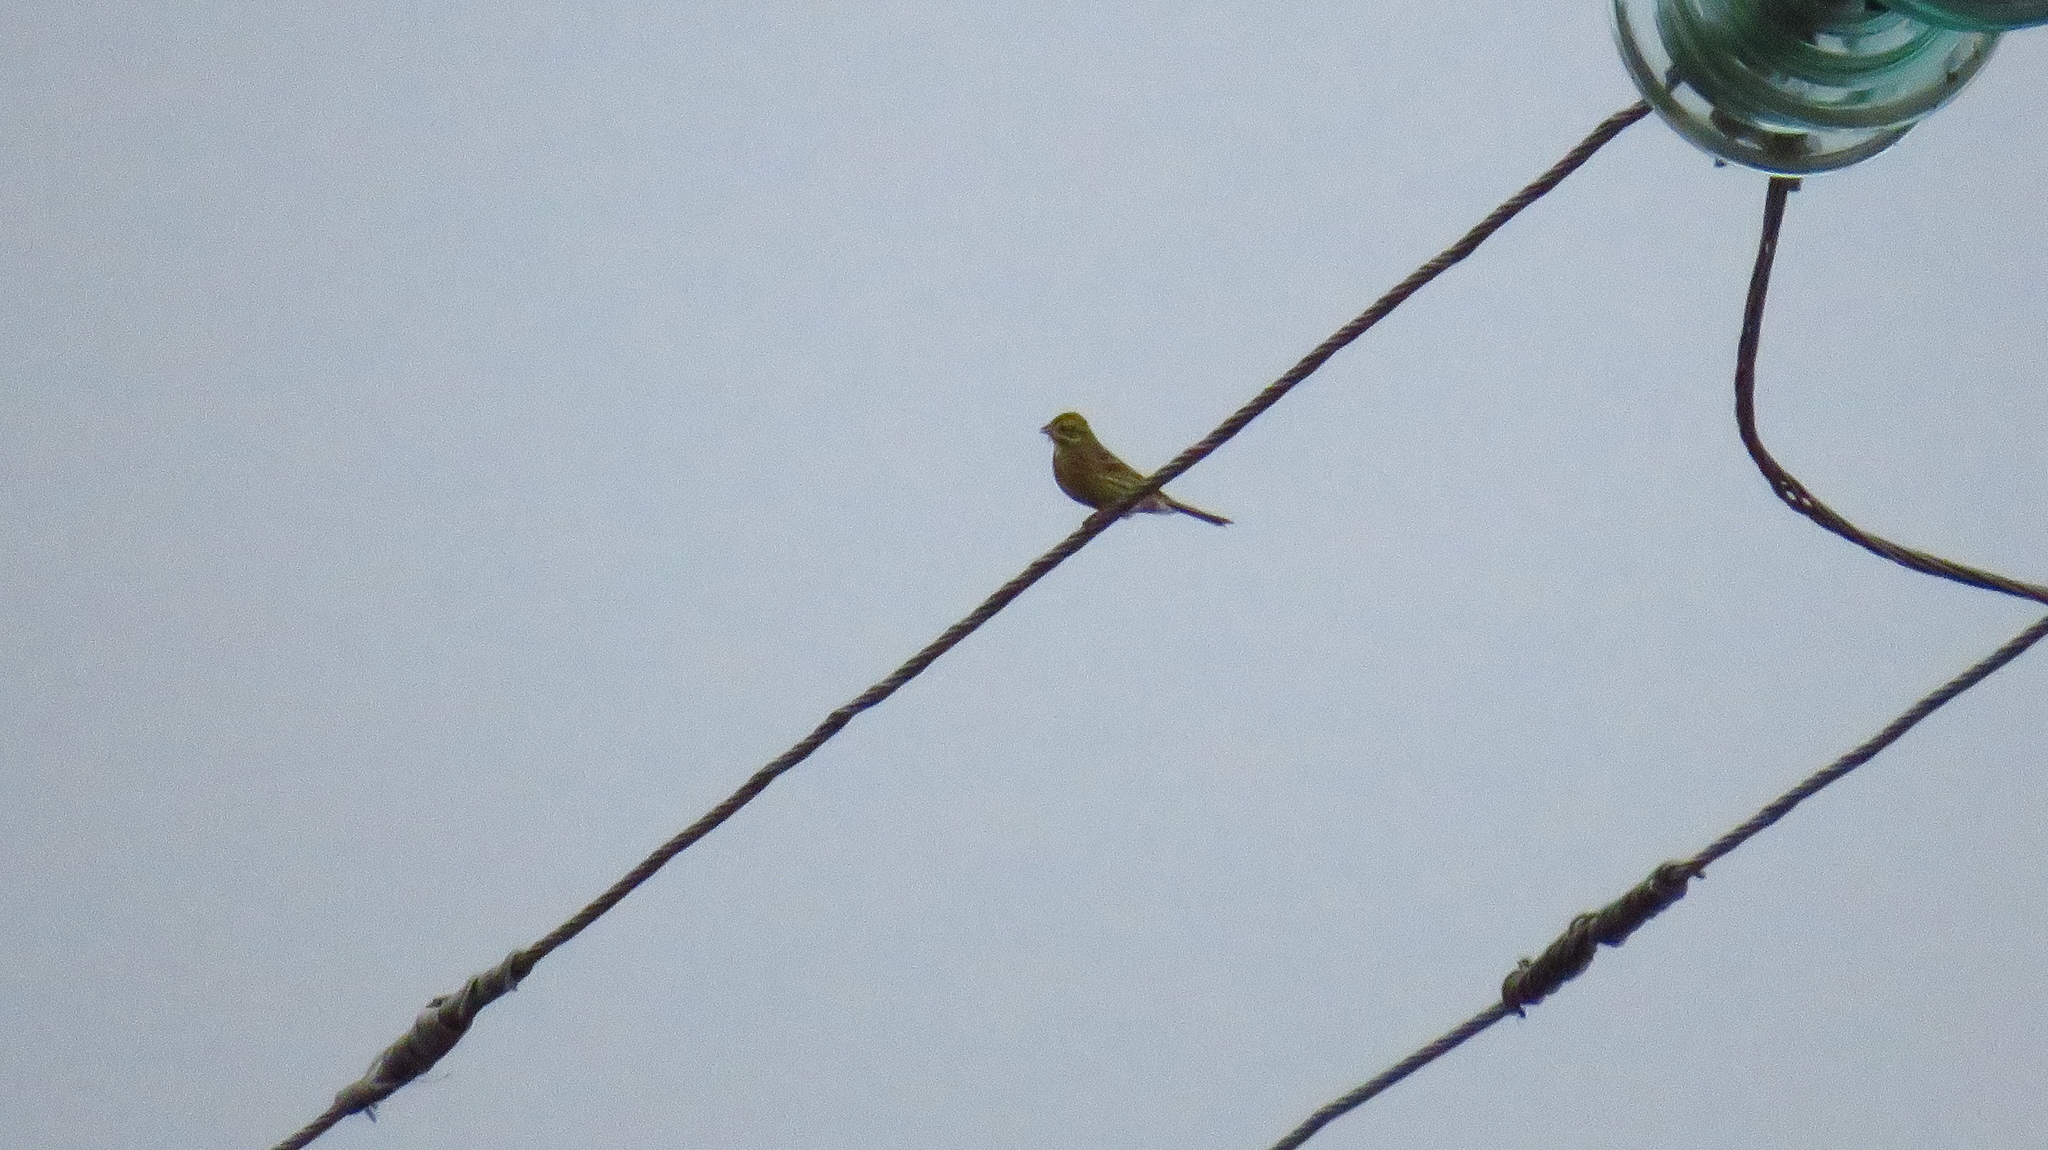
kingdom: Animalia
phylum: Chordata
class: Aves
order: Passeriformes
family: Emberizidae
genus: Emberiza
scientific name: Emberiza citrinella
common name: Yellowhammer
